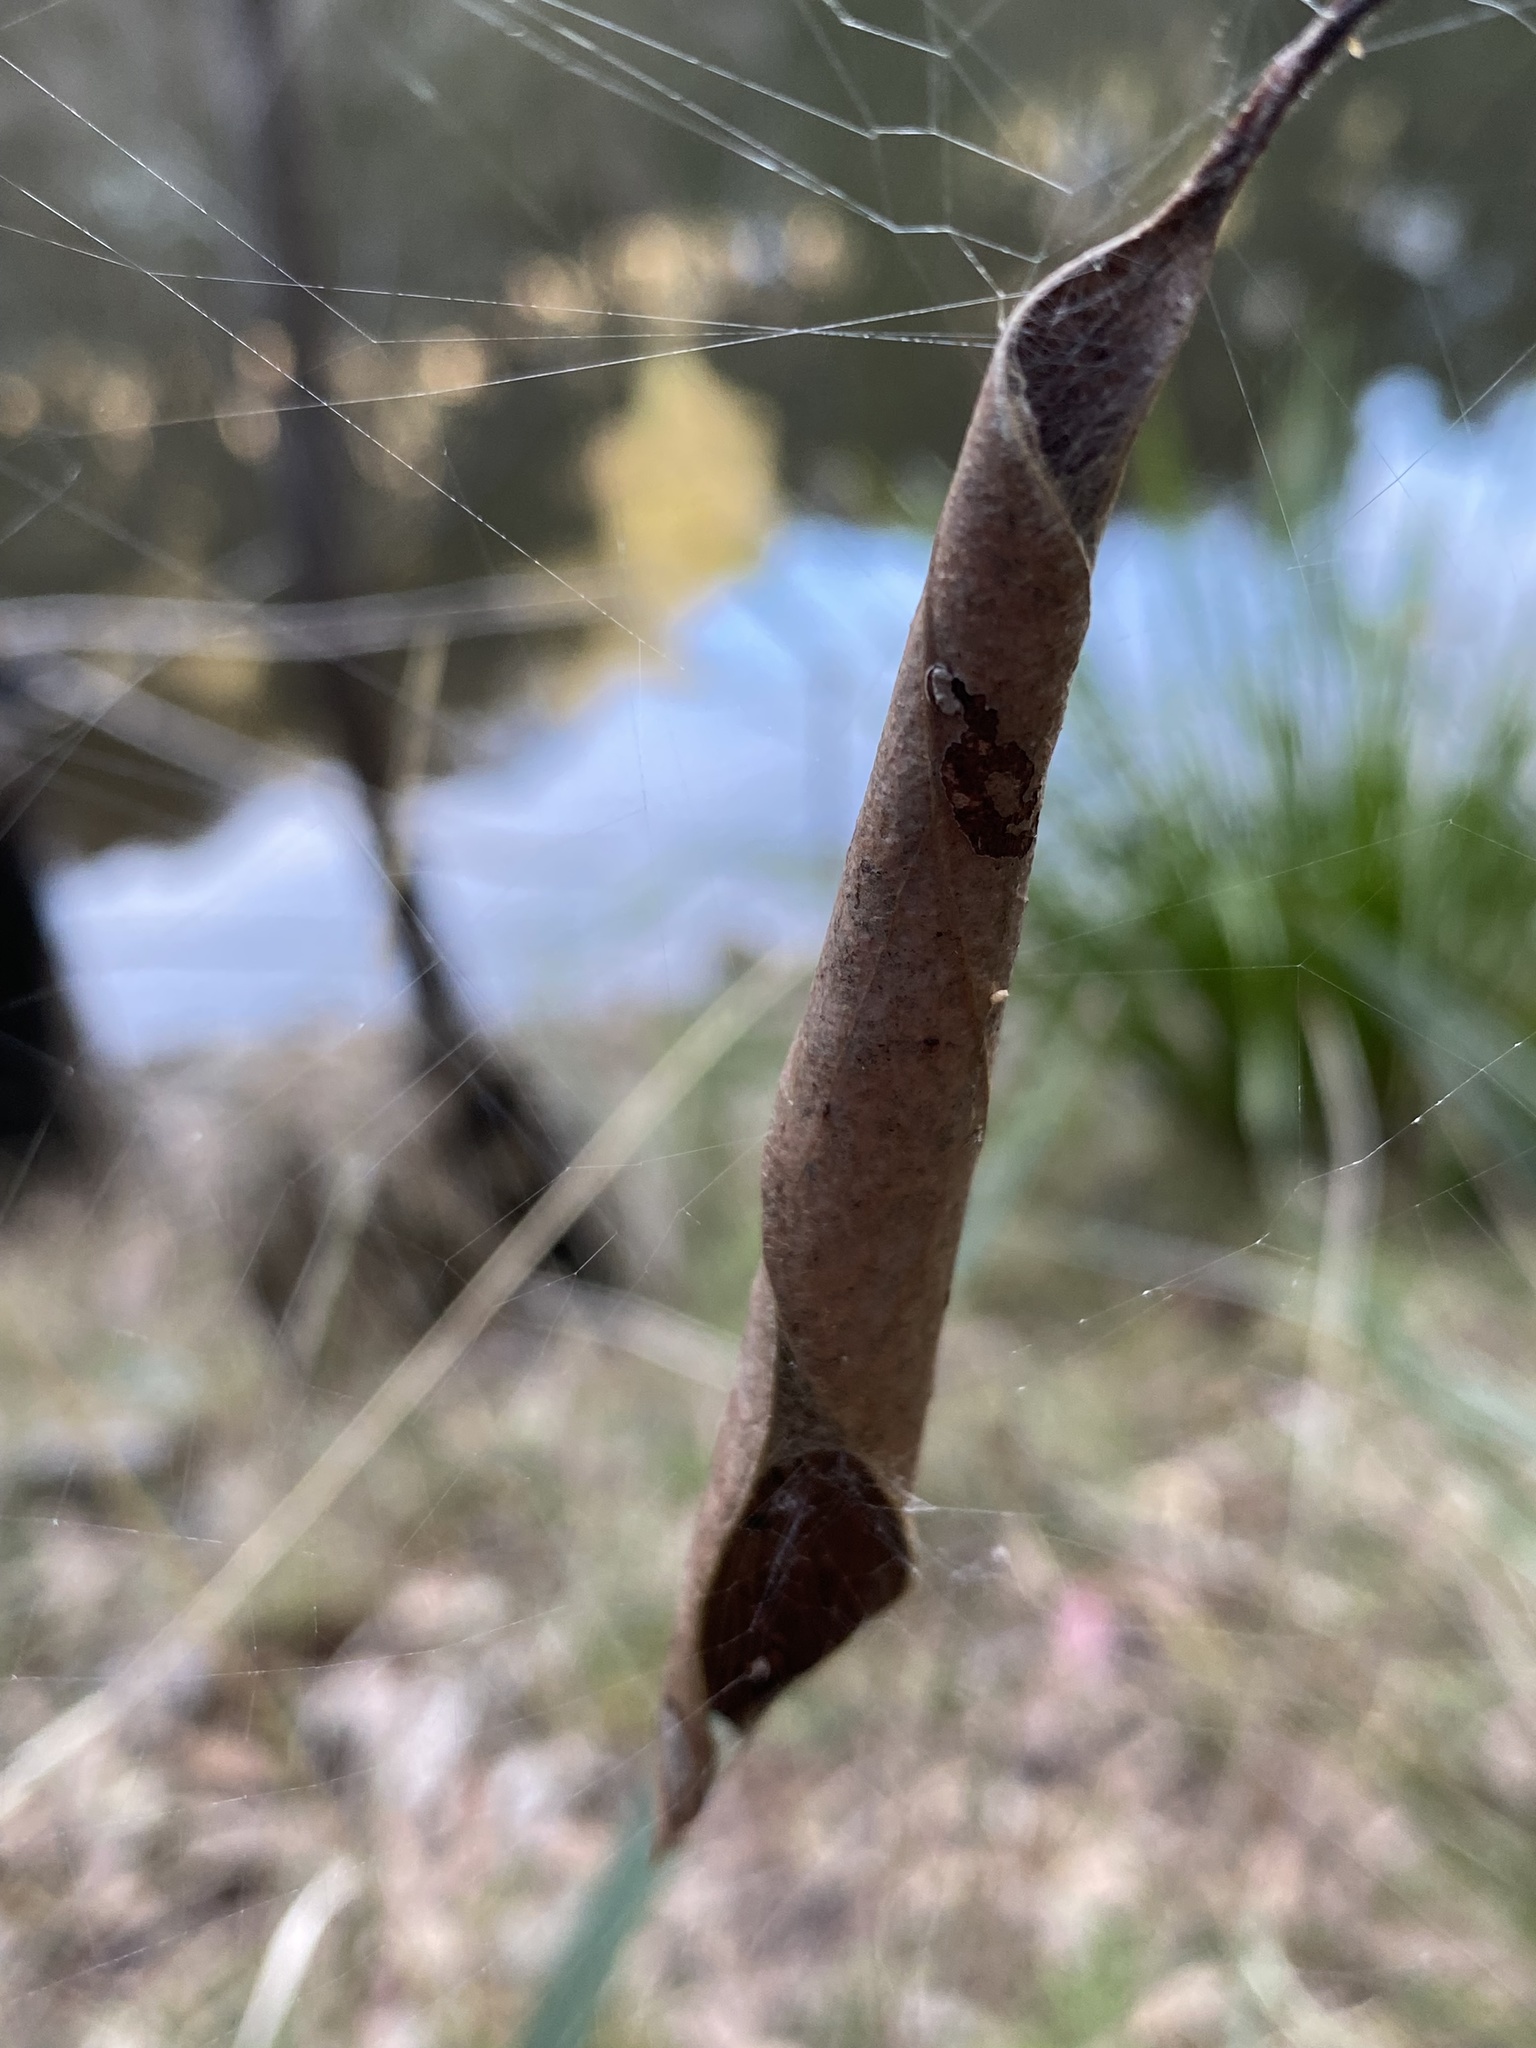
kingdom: Animalia
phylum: Arthropoda
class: Arachnida
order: Araneae
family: Araneidae
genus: Phonognatha
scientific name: Phonognatha graeffei
